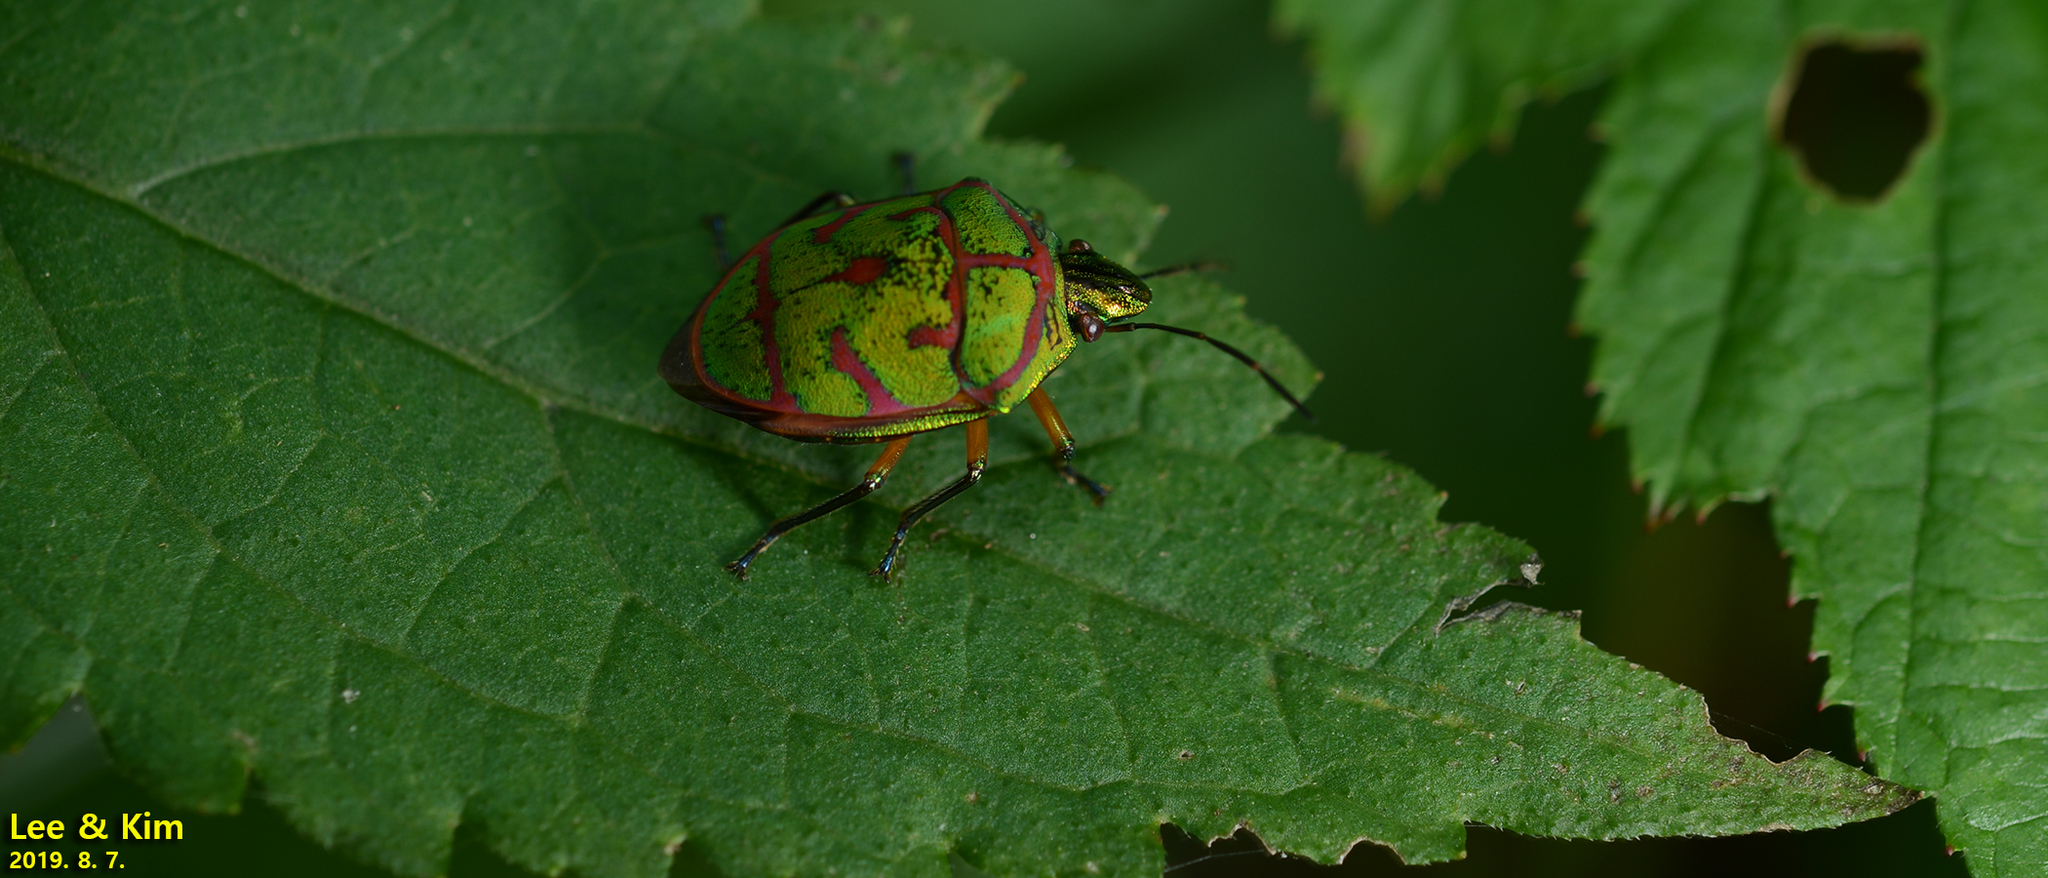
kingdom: Animalia
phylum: Arthropoda
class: Insecta
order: Hemiptera
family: Scutelleridae
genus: Poecilocoris
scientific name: Poecilocoris lewisi
